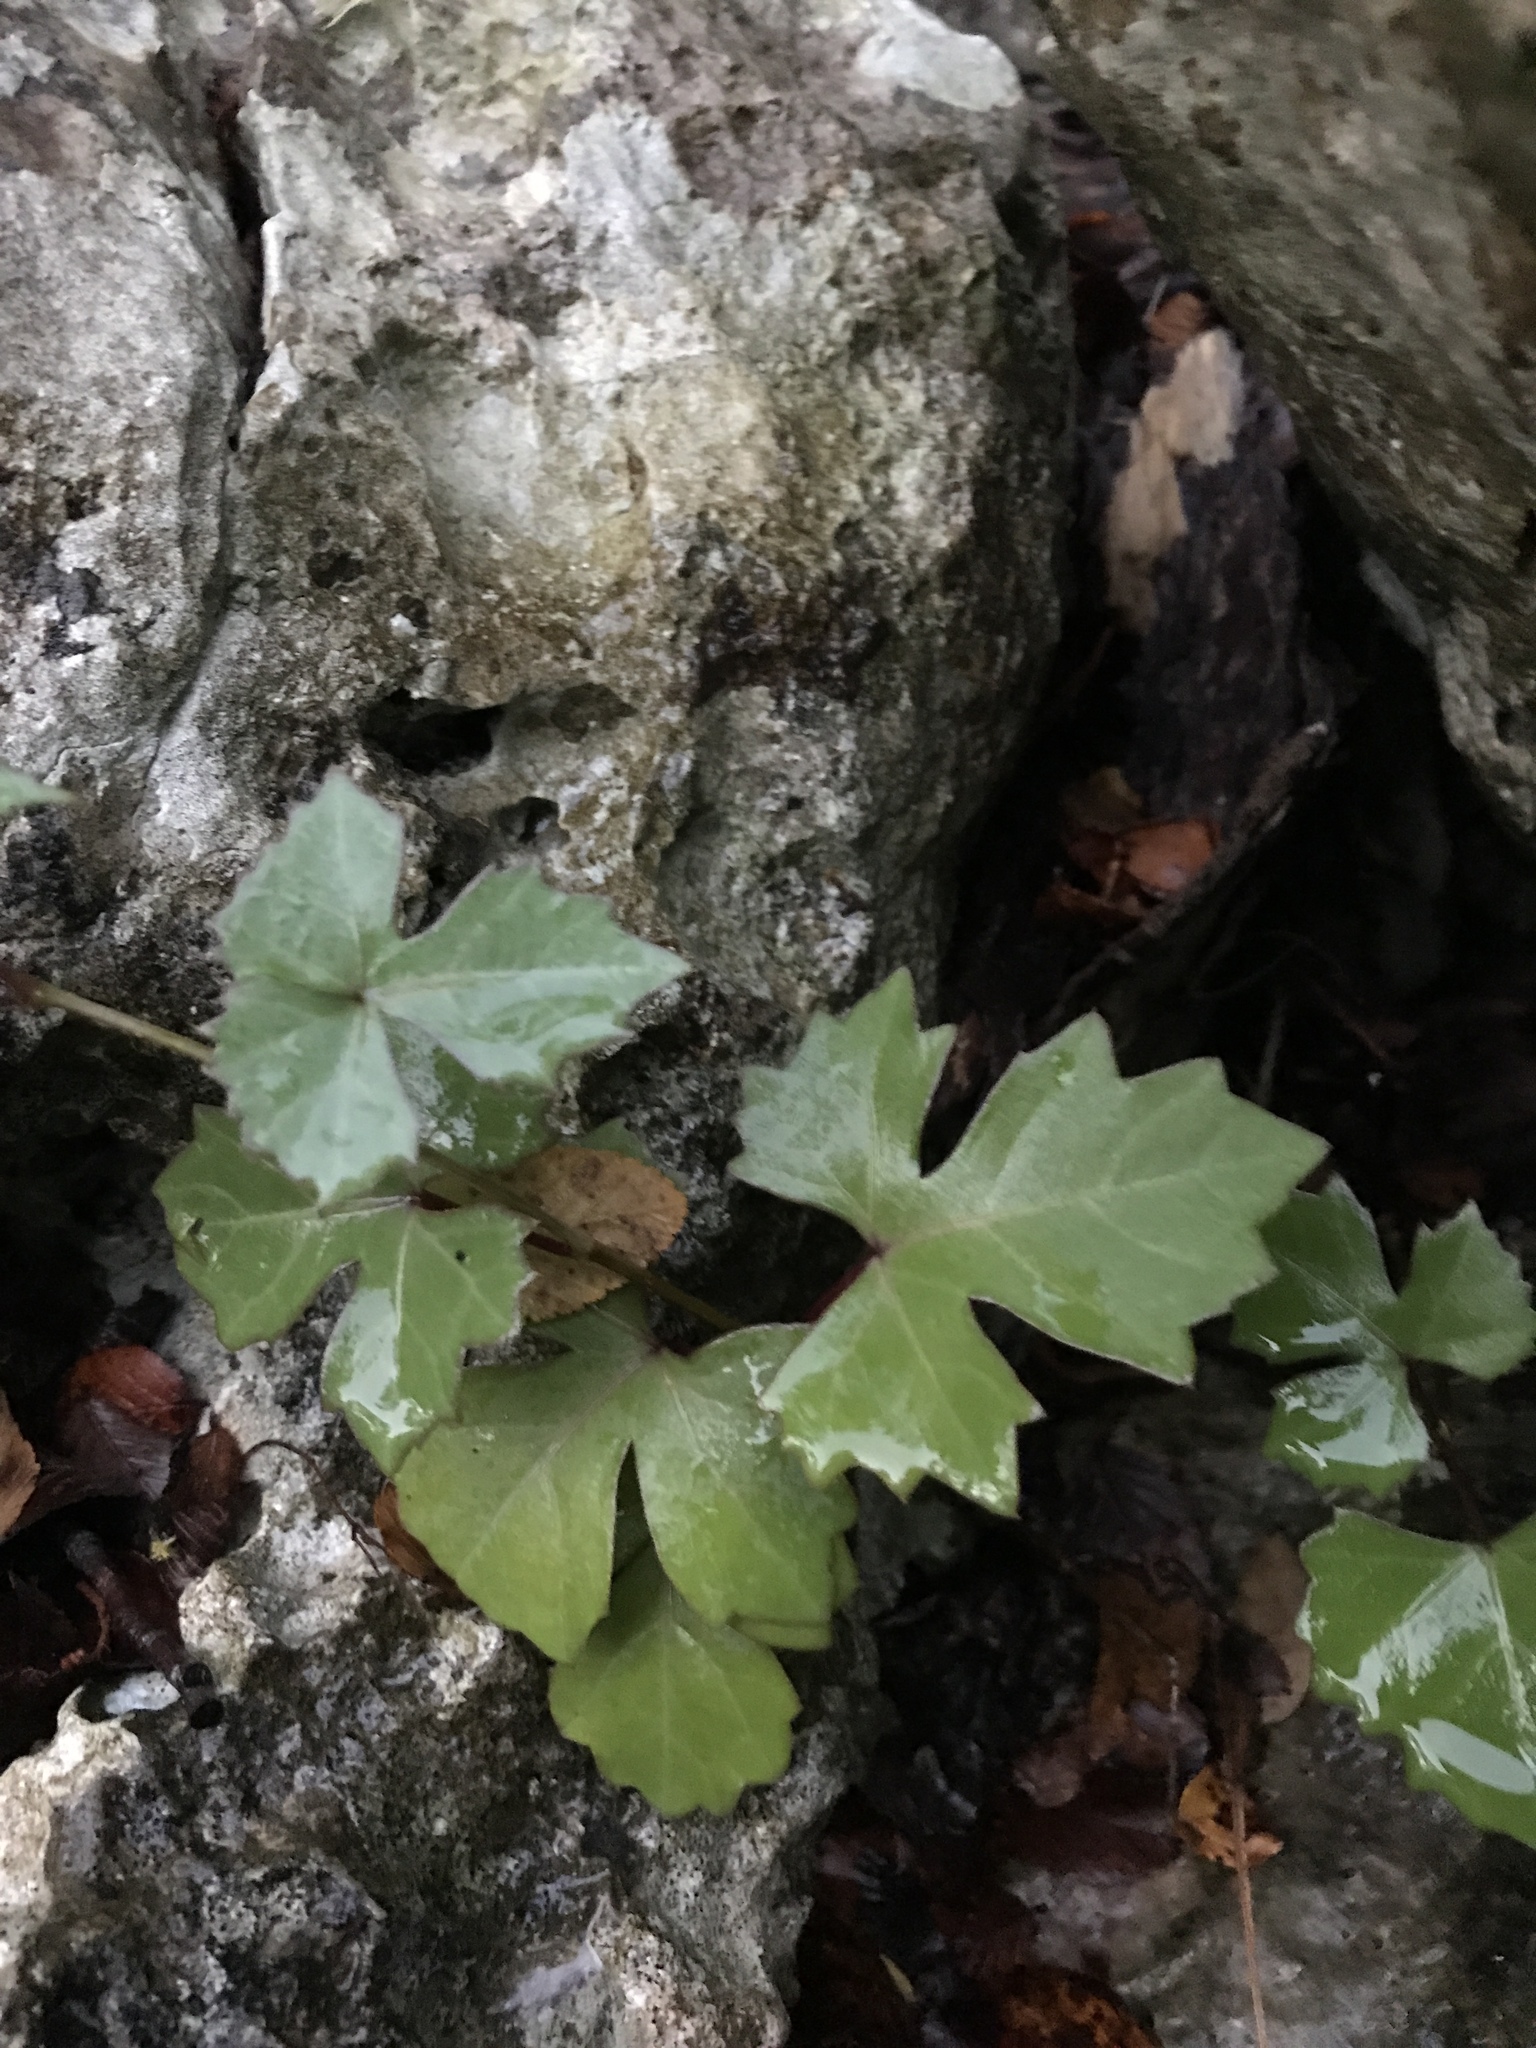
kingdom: Plantae
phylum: Tracheophyta
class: Magnoliopsida
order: Vitales
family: Vitaceae
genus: Cissus
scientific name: Cissus trifoliata
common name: Vine-sorrel
